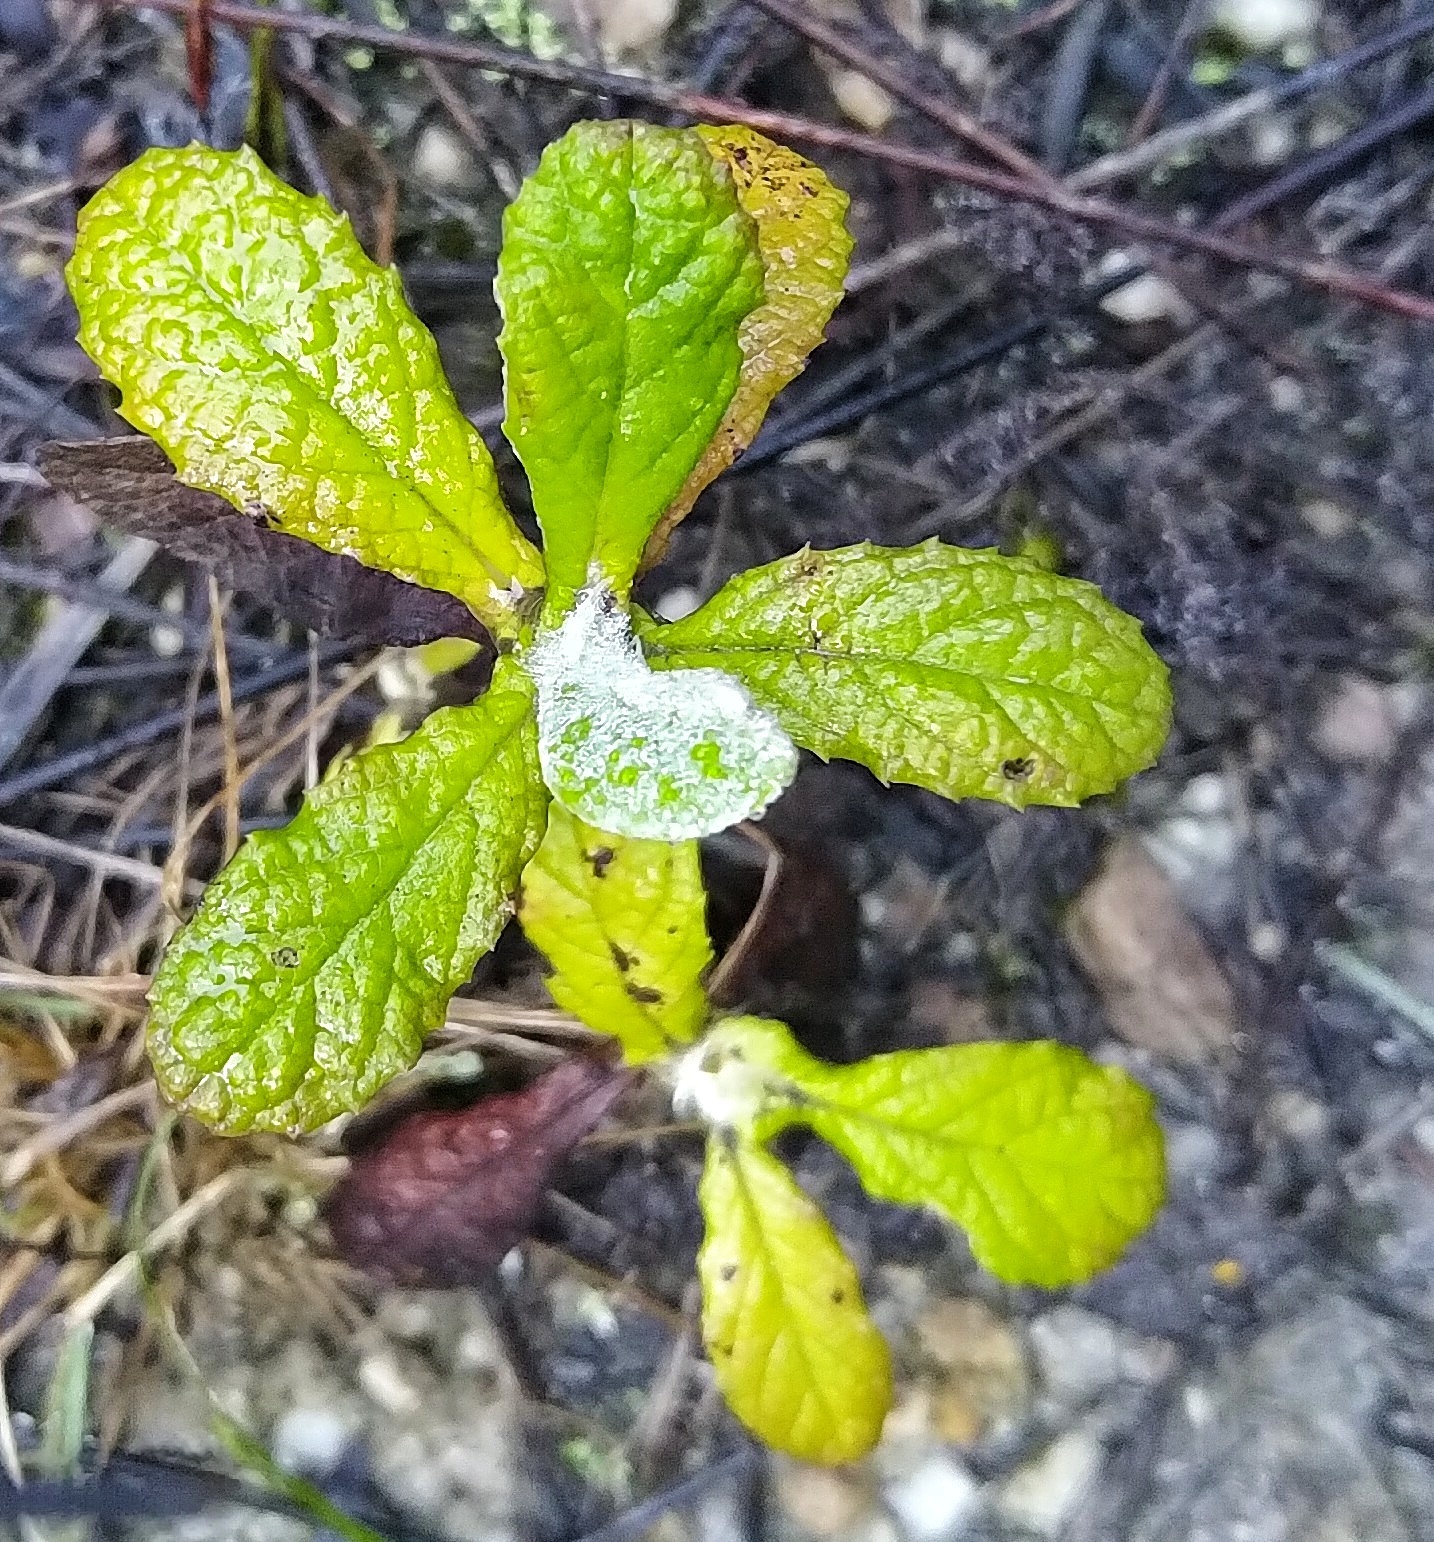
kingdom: Plantae
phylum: Tracheophyta
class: Magnoliopsida
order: Asterales
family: Asteraceae
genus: Tarchonanthus
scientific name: Tarchonanthus littoralis
